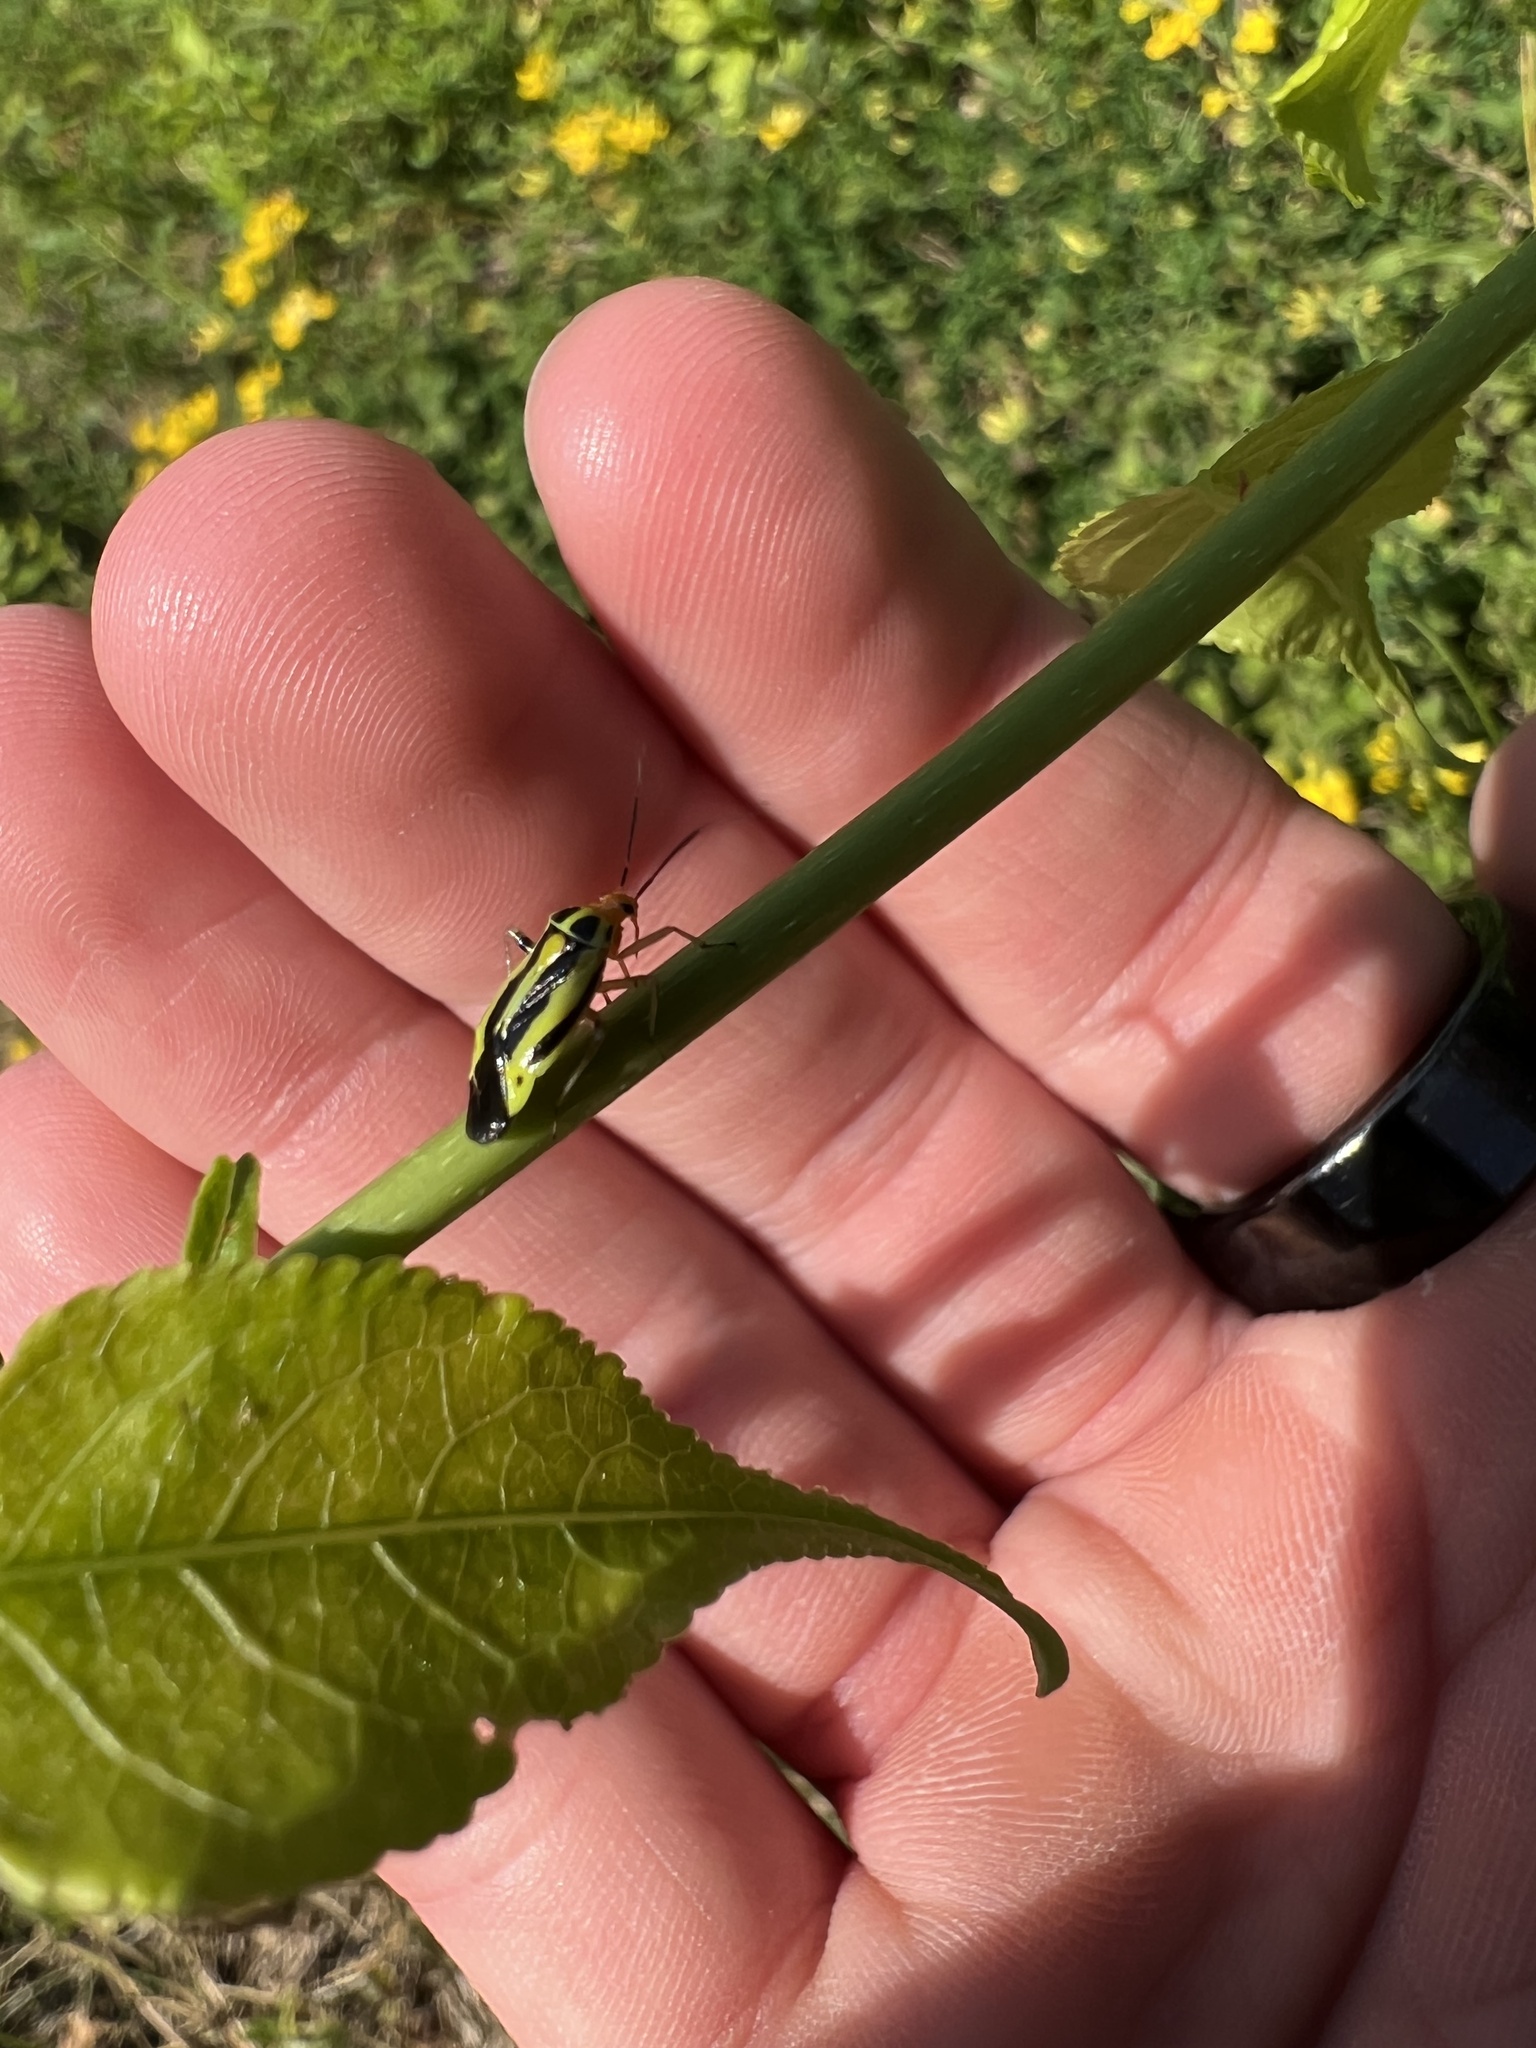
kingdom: Animalia
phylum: Arthropoda
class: Insecta
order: Hemiptera
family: Miridae
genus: Poecilocapsus
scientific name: Poecilocapsus lineatus
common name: Four-lined plant bug
